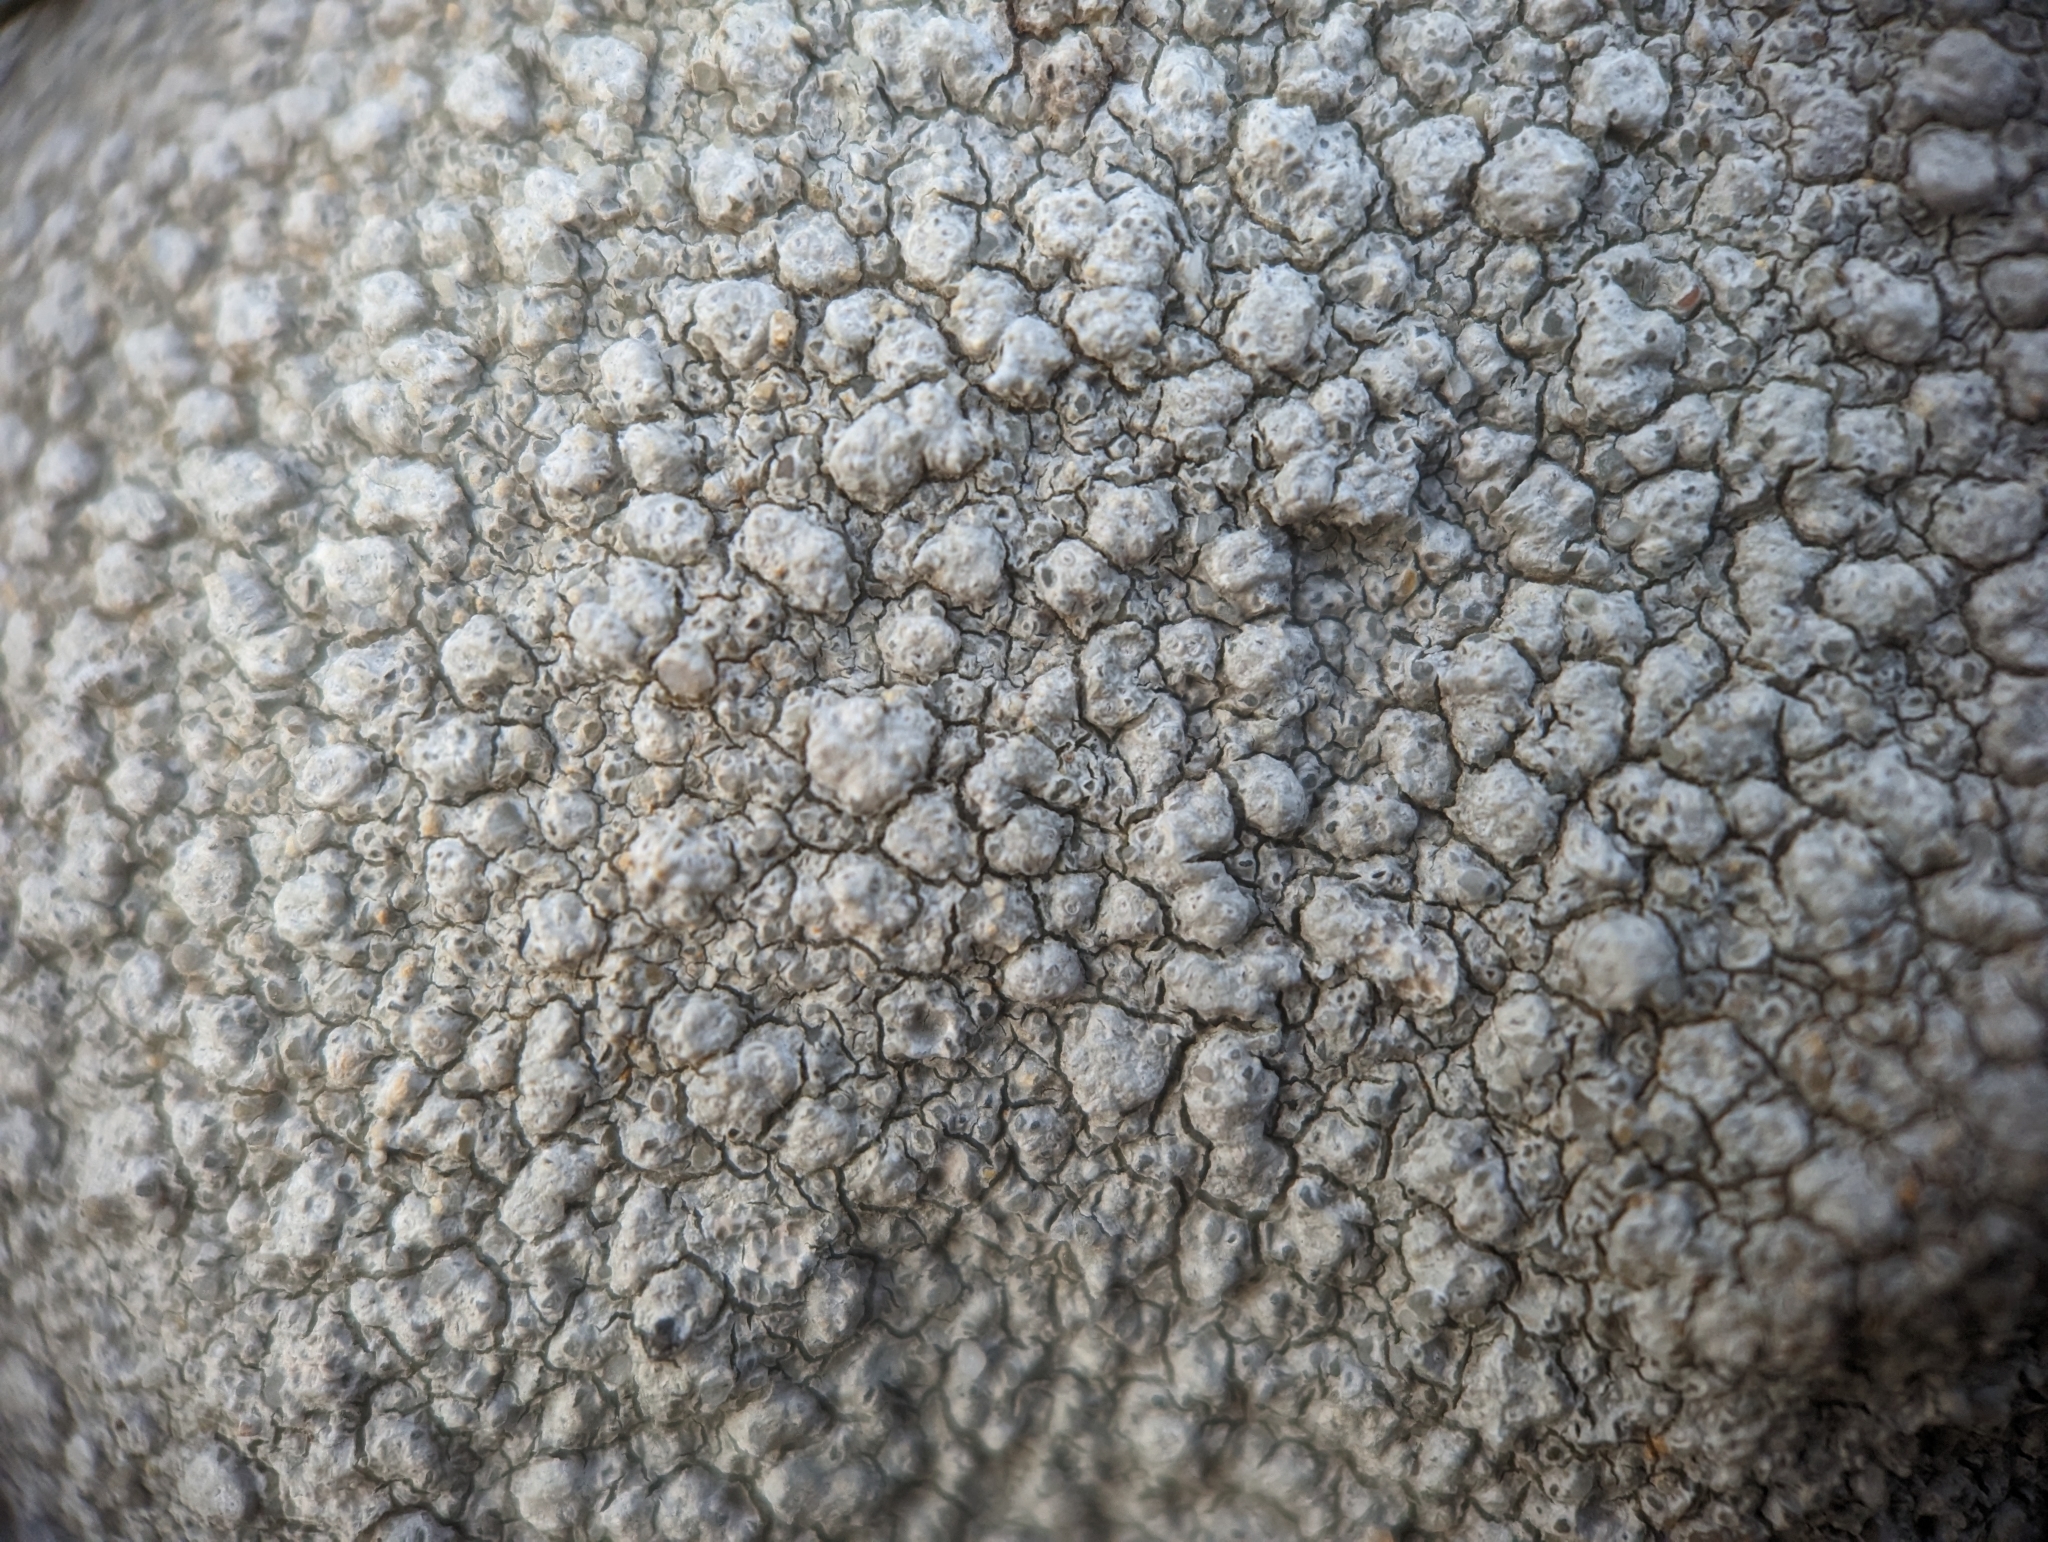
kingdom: Fungi
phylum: Ascomycota
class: Lecanoromycetes
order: Pertusariales
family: Pertusariaceae
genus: Pertusaria
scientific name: Pertusaria plittiana
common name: Rock wart lichen
